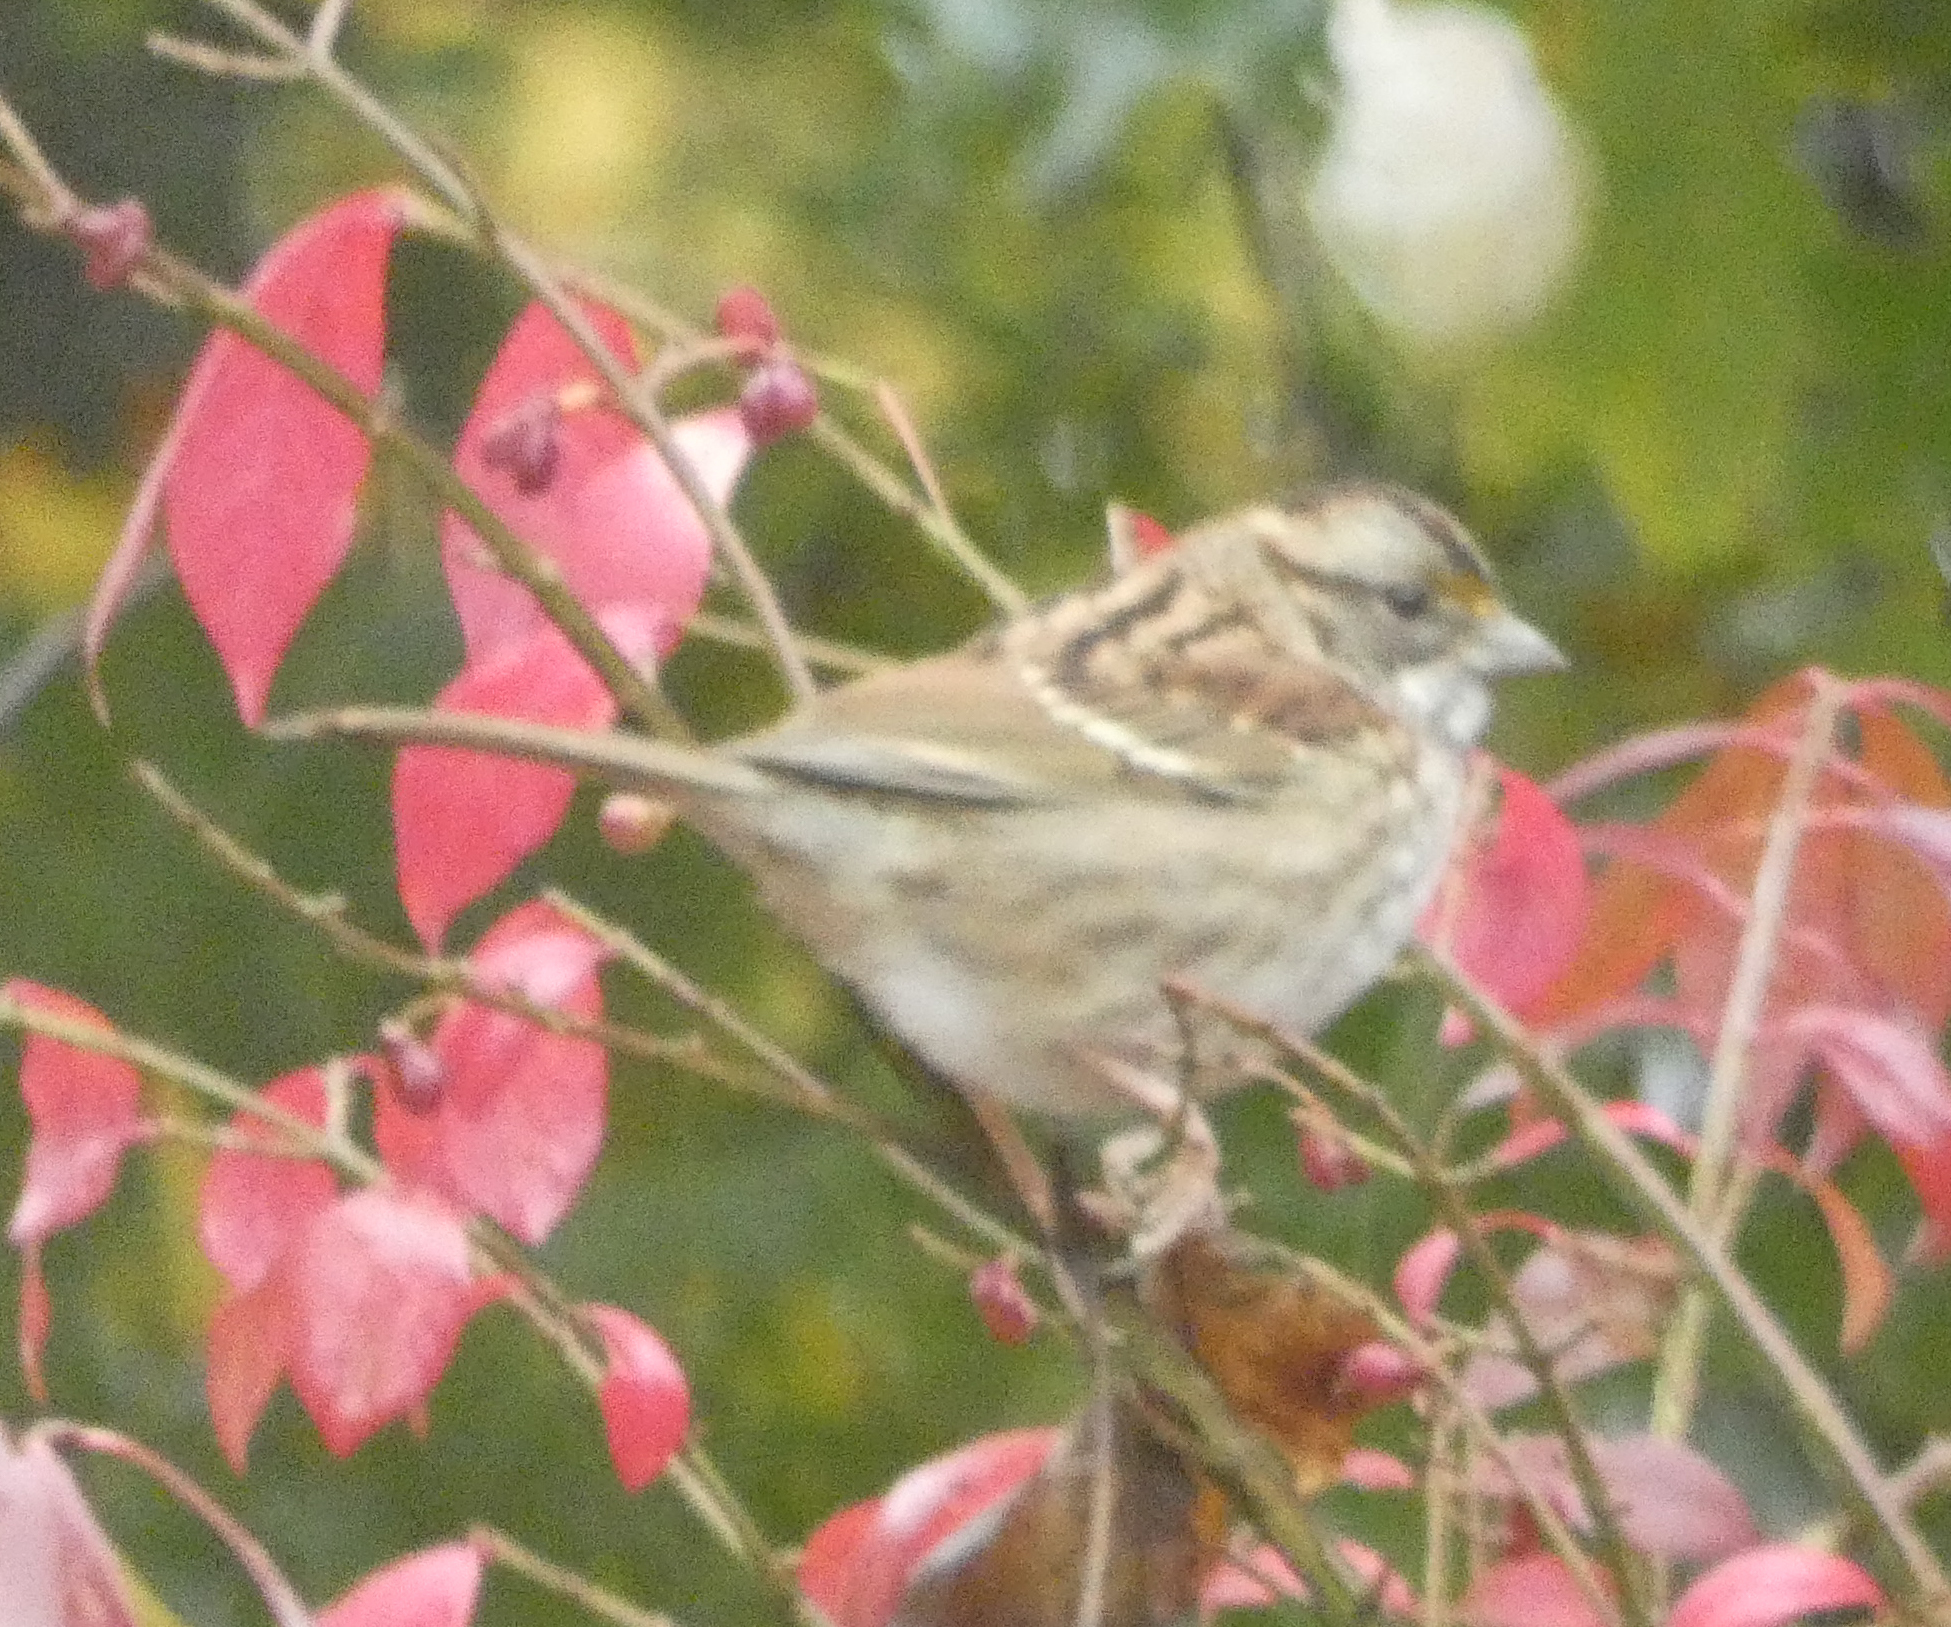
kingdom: Animalia
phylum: Chordata
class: Aves
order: Passeriformes
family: Passerellidae
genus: Zonotrichia
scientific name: Zonotrichia albicollis
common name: White-throated sparrow
